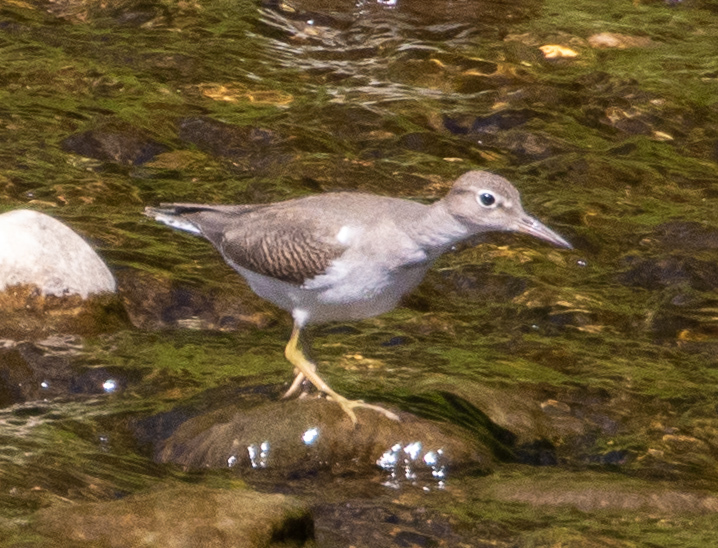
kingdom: Animalia
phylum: Chordata
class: Aves
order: Charadriiformes
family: Scolopacidae
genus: Actitis
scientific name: Actitis macularius
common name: Spotted sandpiper
